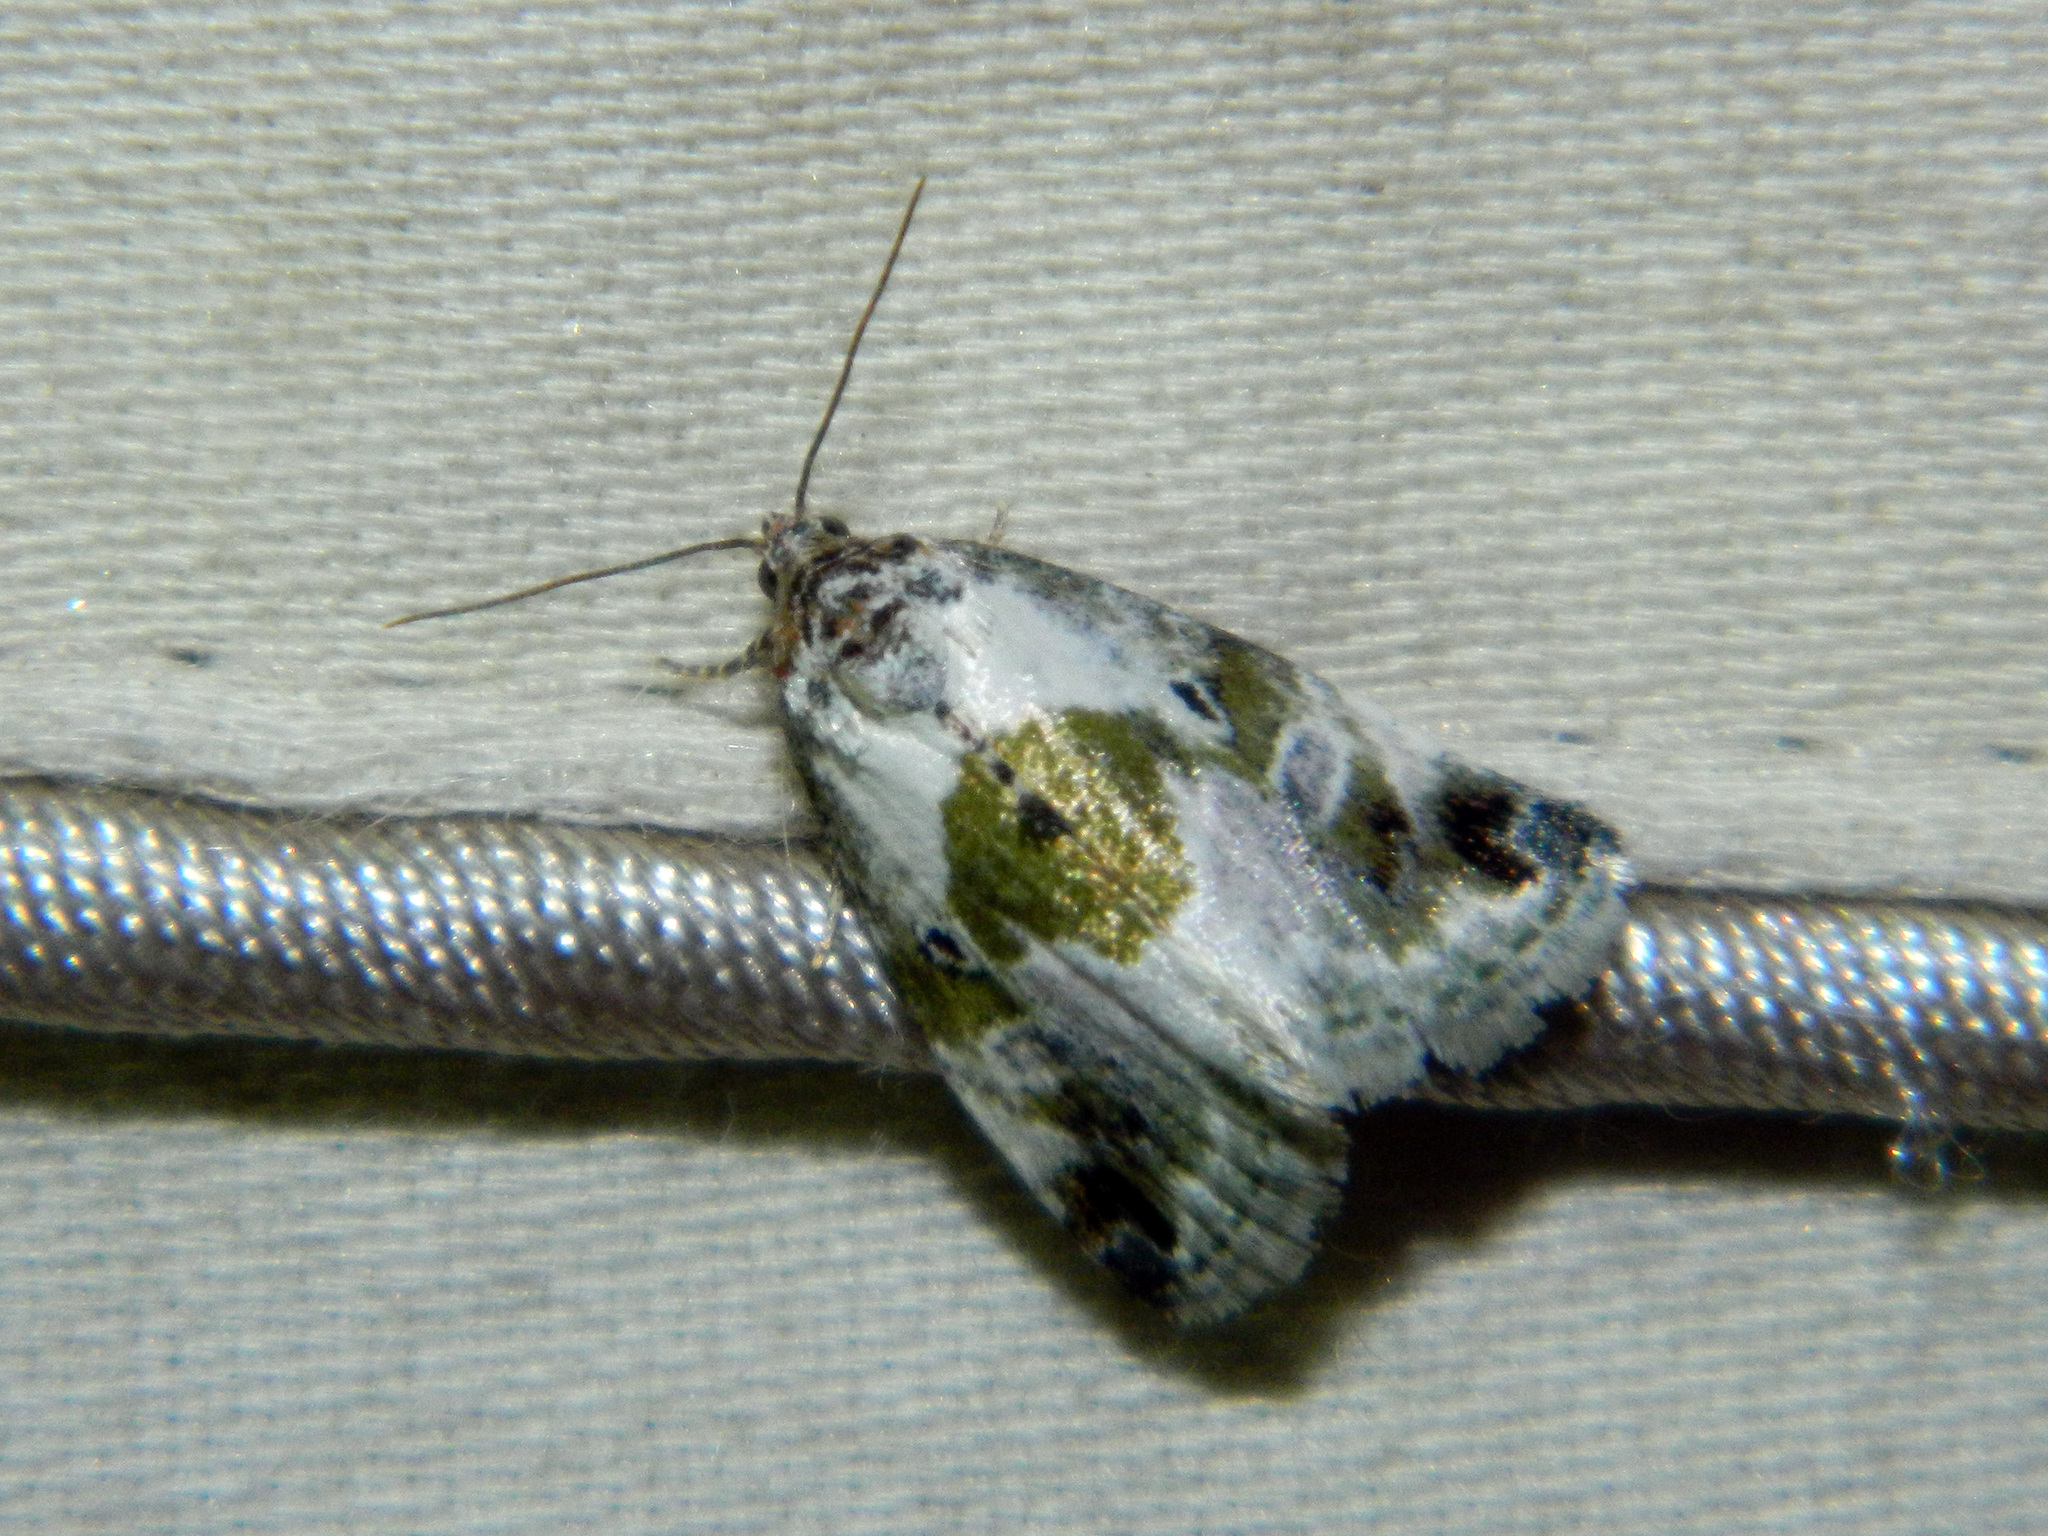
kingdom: Animalia
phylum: Arthropoda
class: Insecta
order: Lepidoptera
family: Noctuidae
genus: Maliattha
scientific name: Maliattha synochitis
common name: Black-dotted glyph
